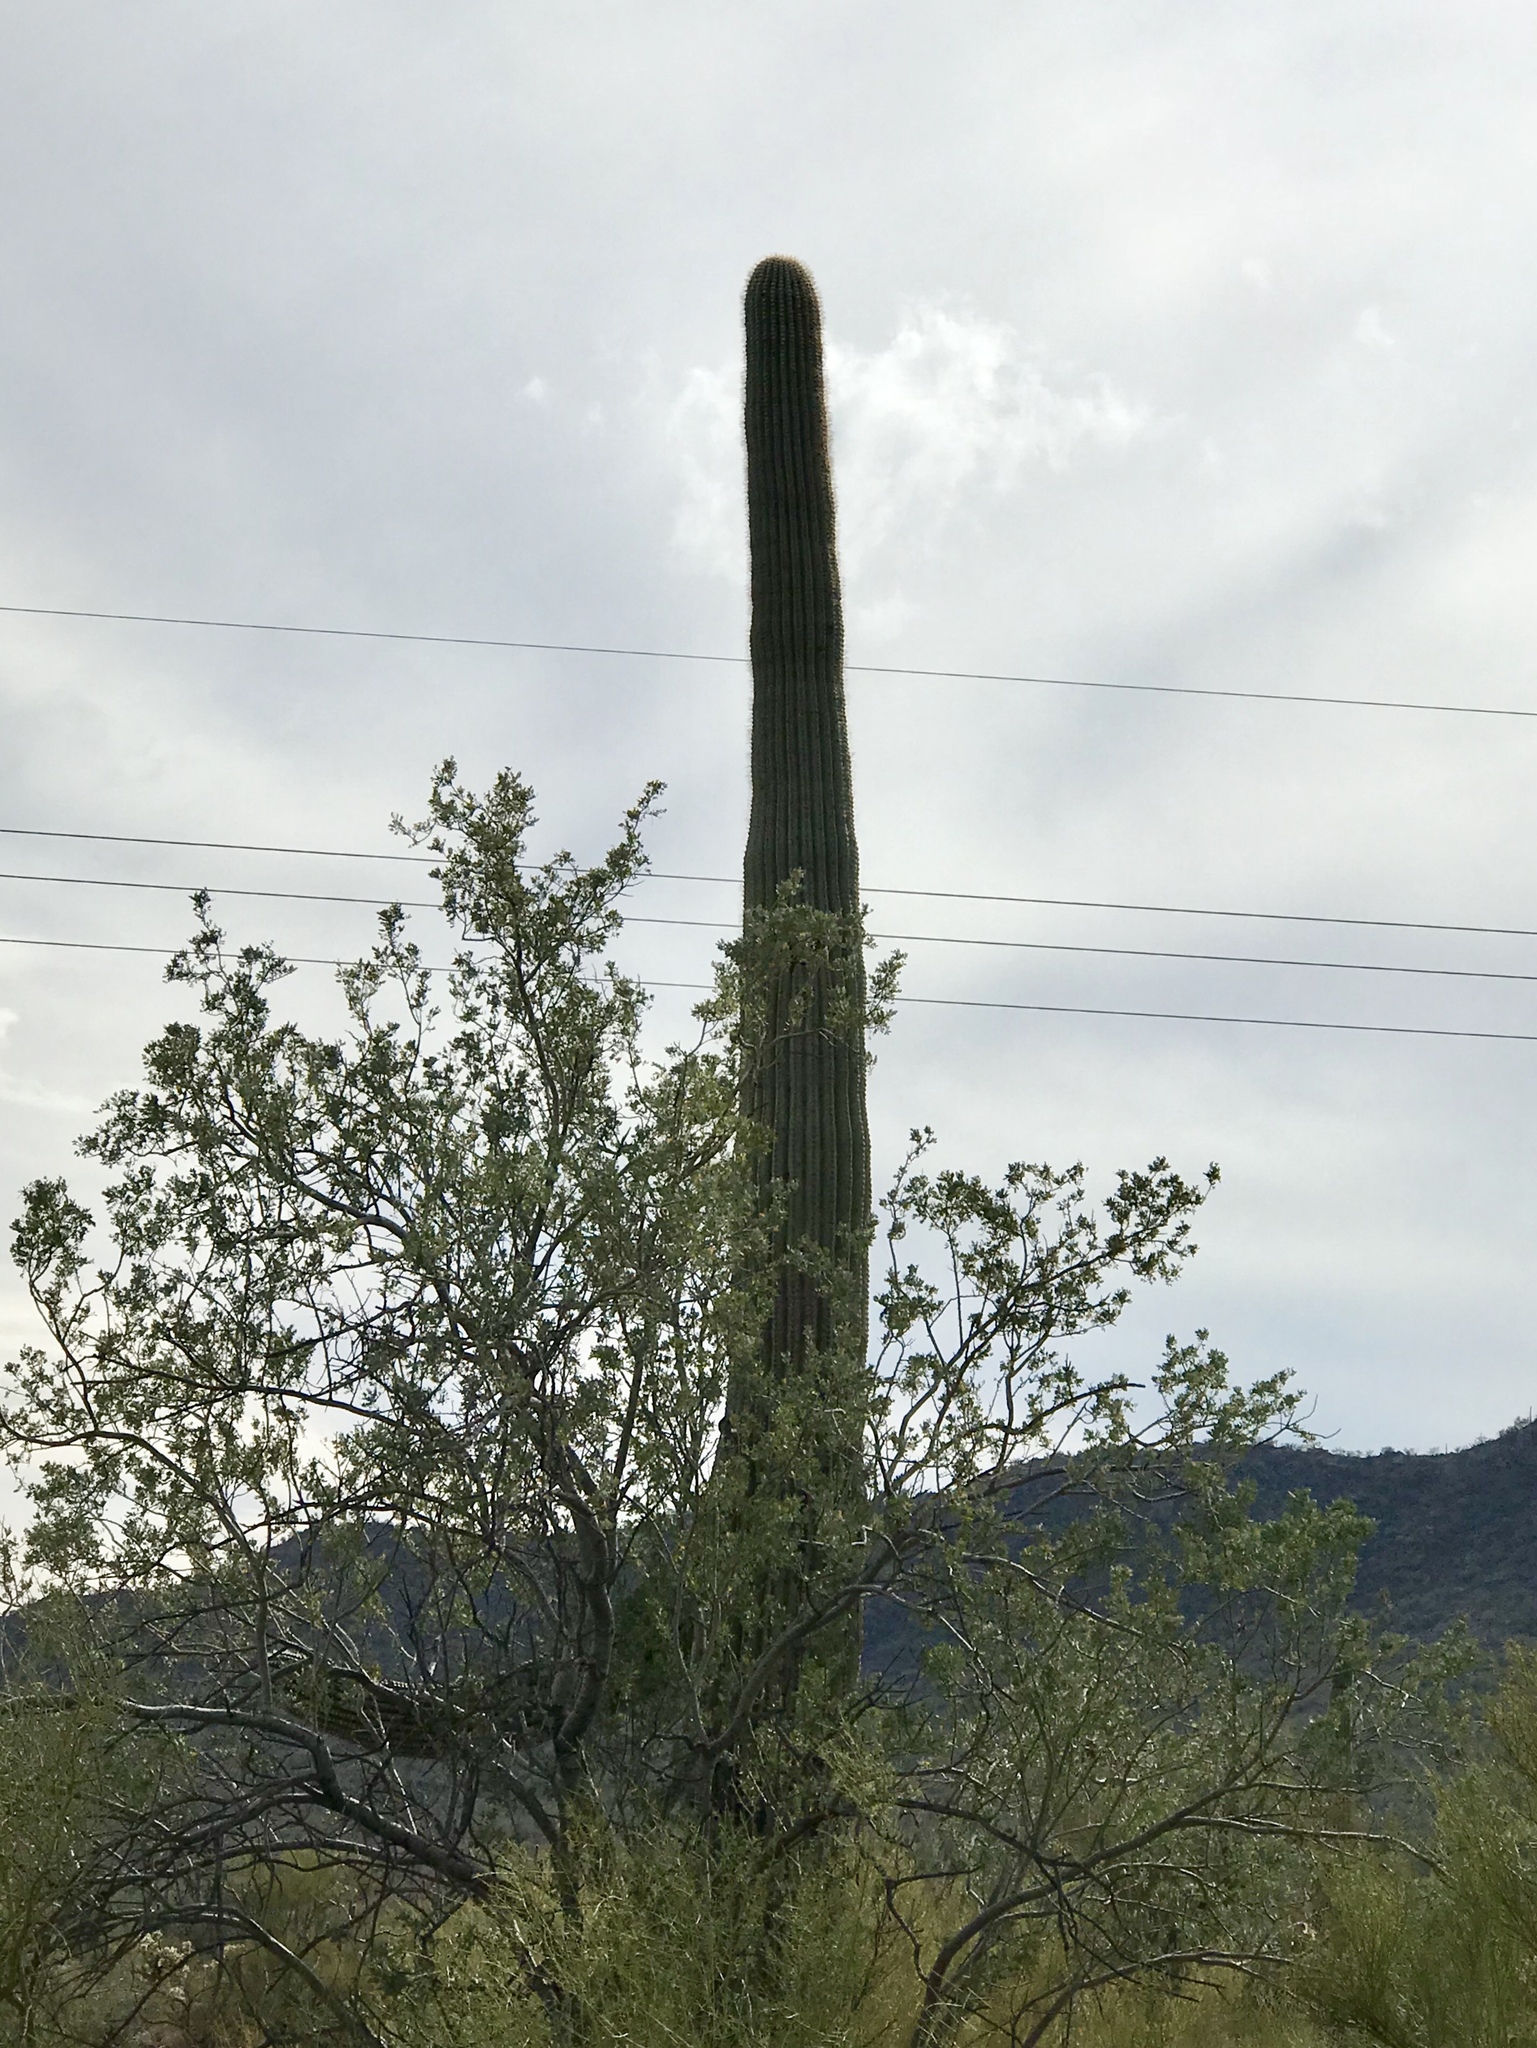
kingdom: Plantae
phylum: Tracheophyta
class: Magnoliopsida
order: Caryophyllales
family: Cactaceae
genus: Carnegiea
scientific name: Carnegiea gigantea
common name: Saguaro
